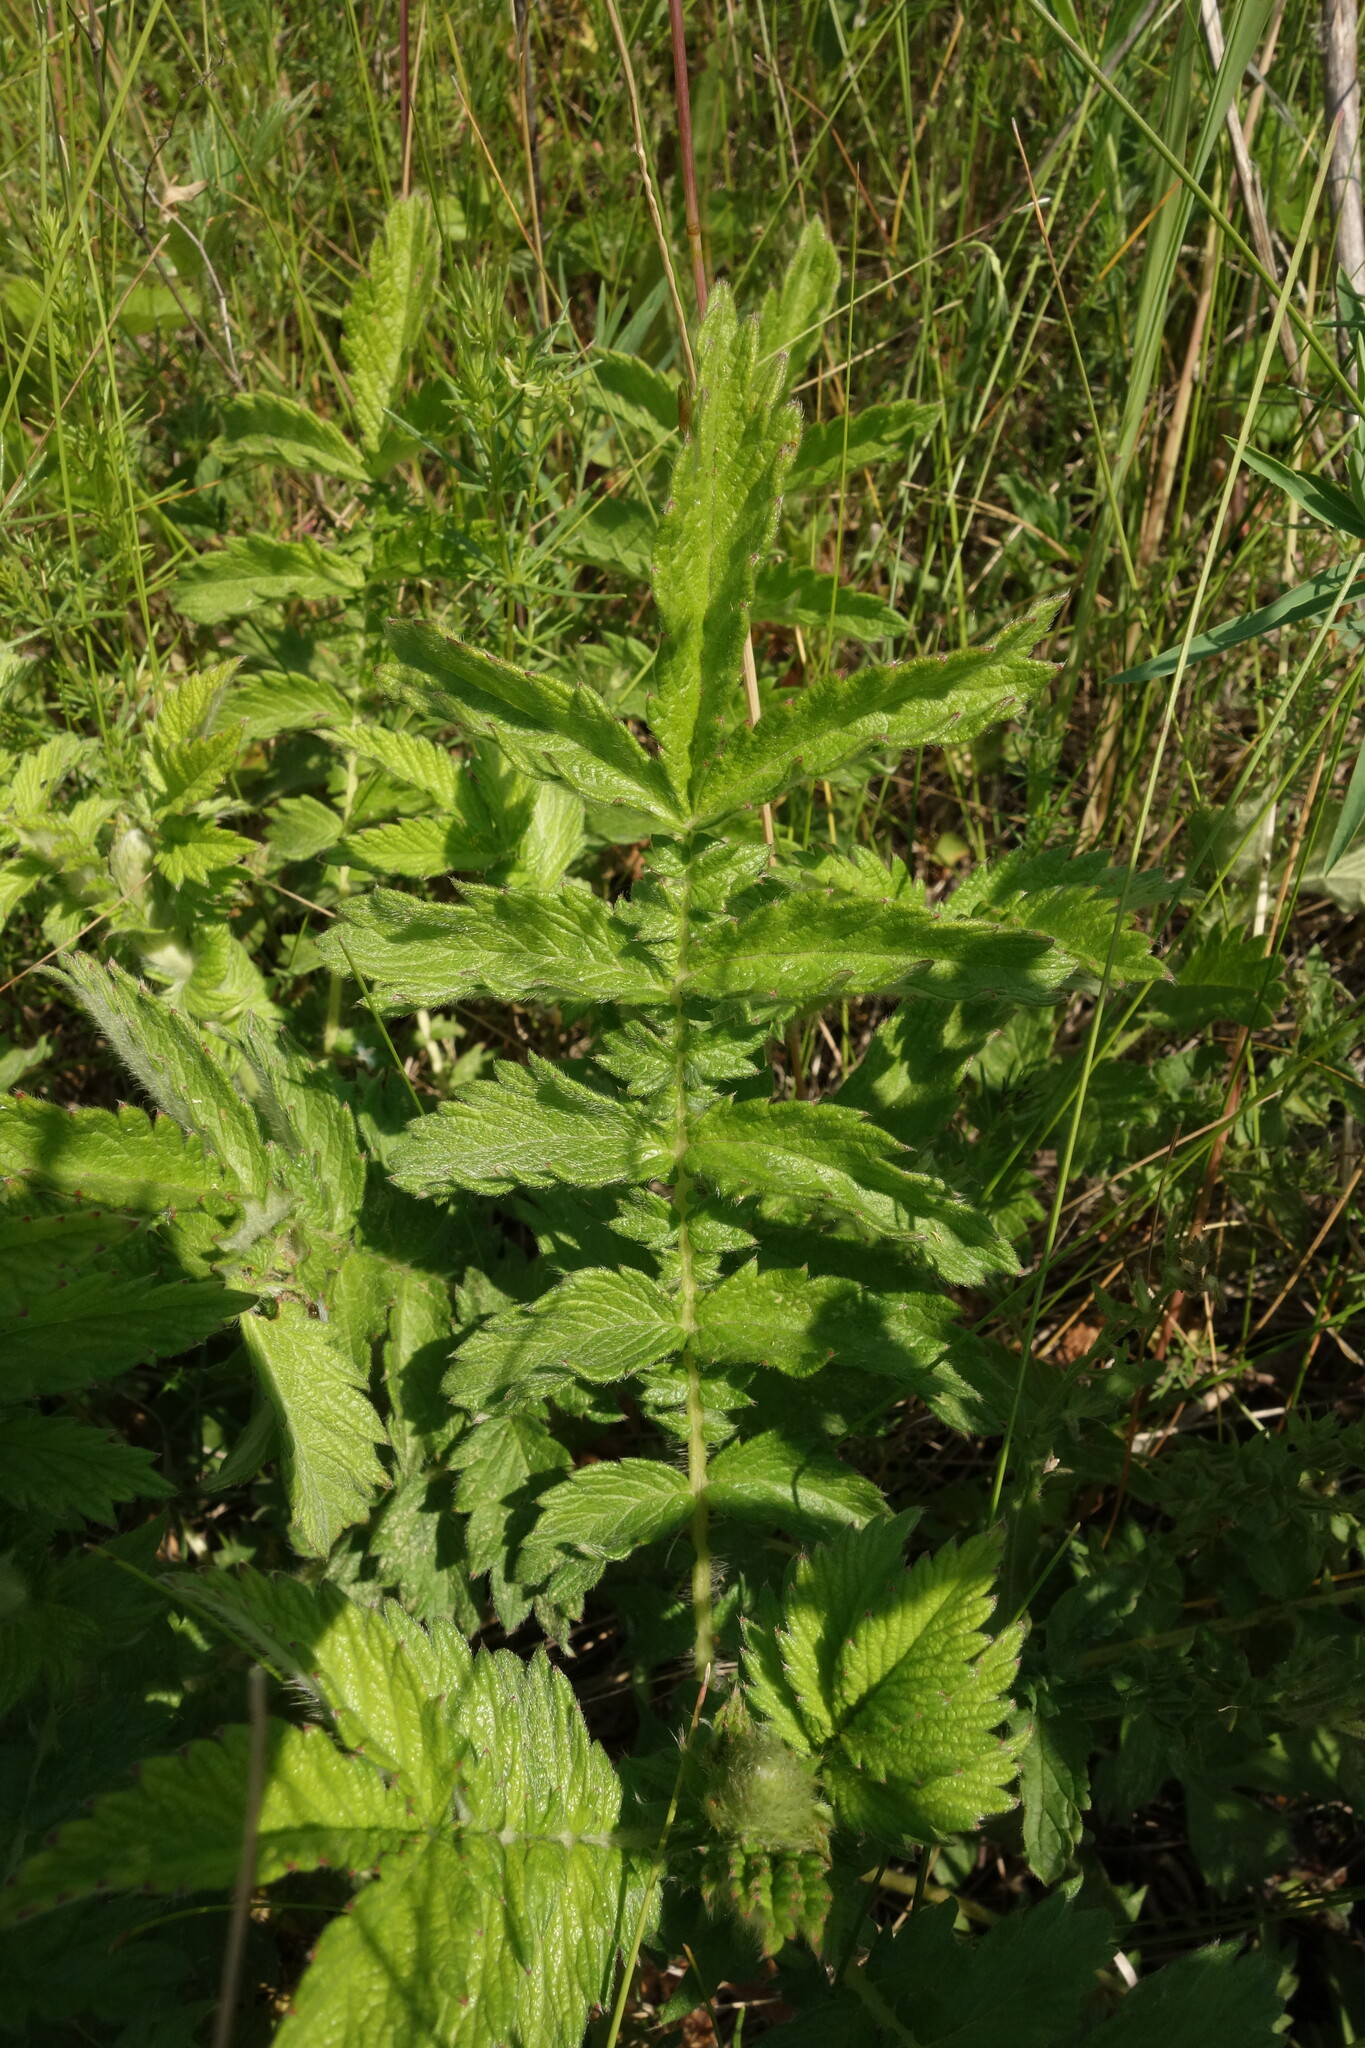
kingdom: Plantae
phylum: Tracheophyta
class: Magnoliopsida
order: Rosales
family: Rosaceae
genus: Agrimonia
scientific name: Agrimonia eupatoria
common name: Agrimony
